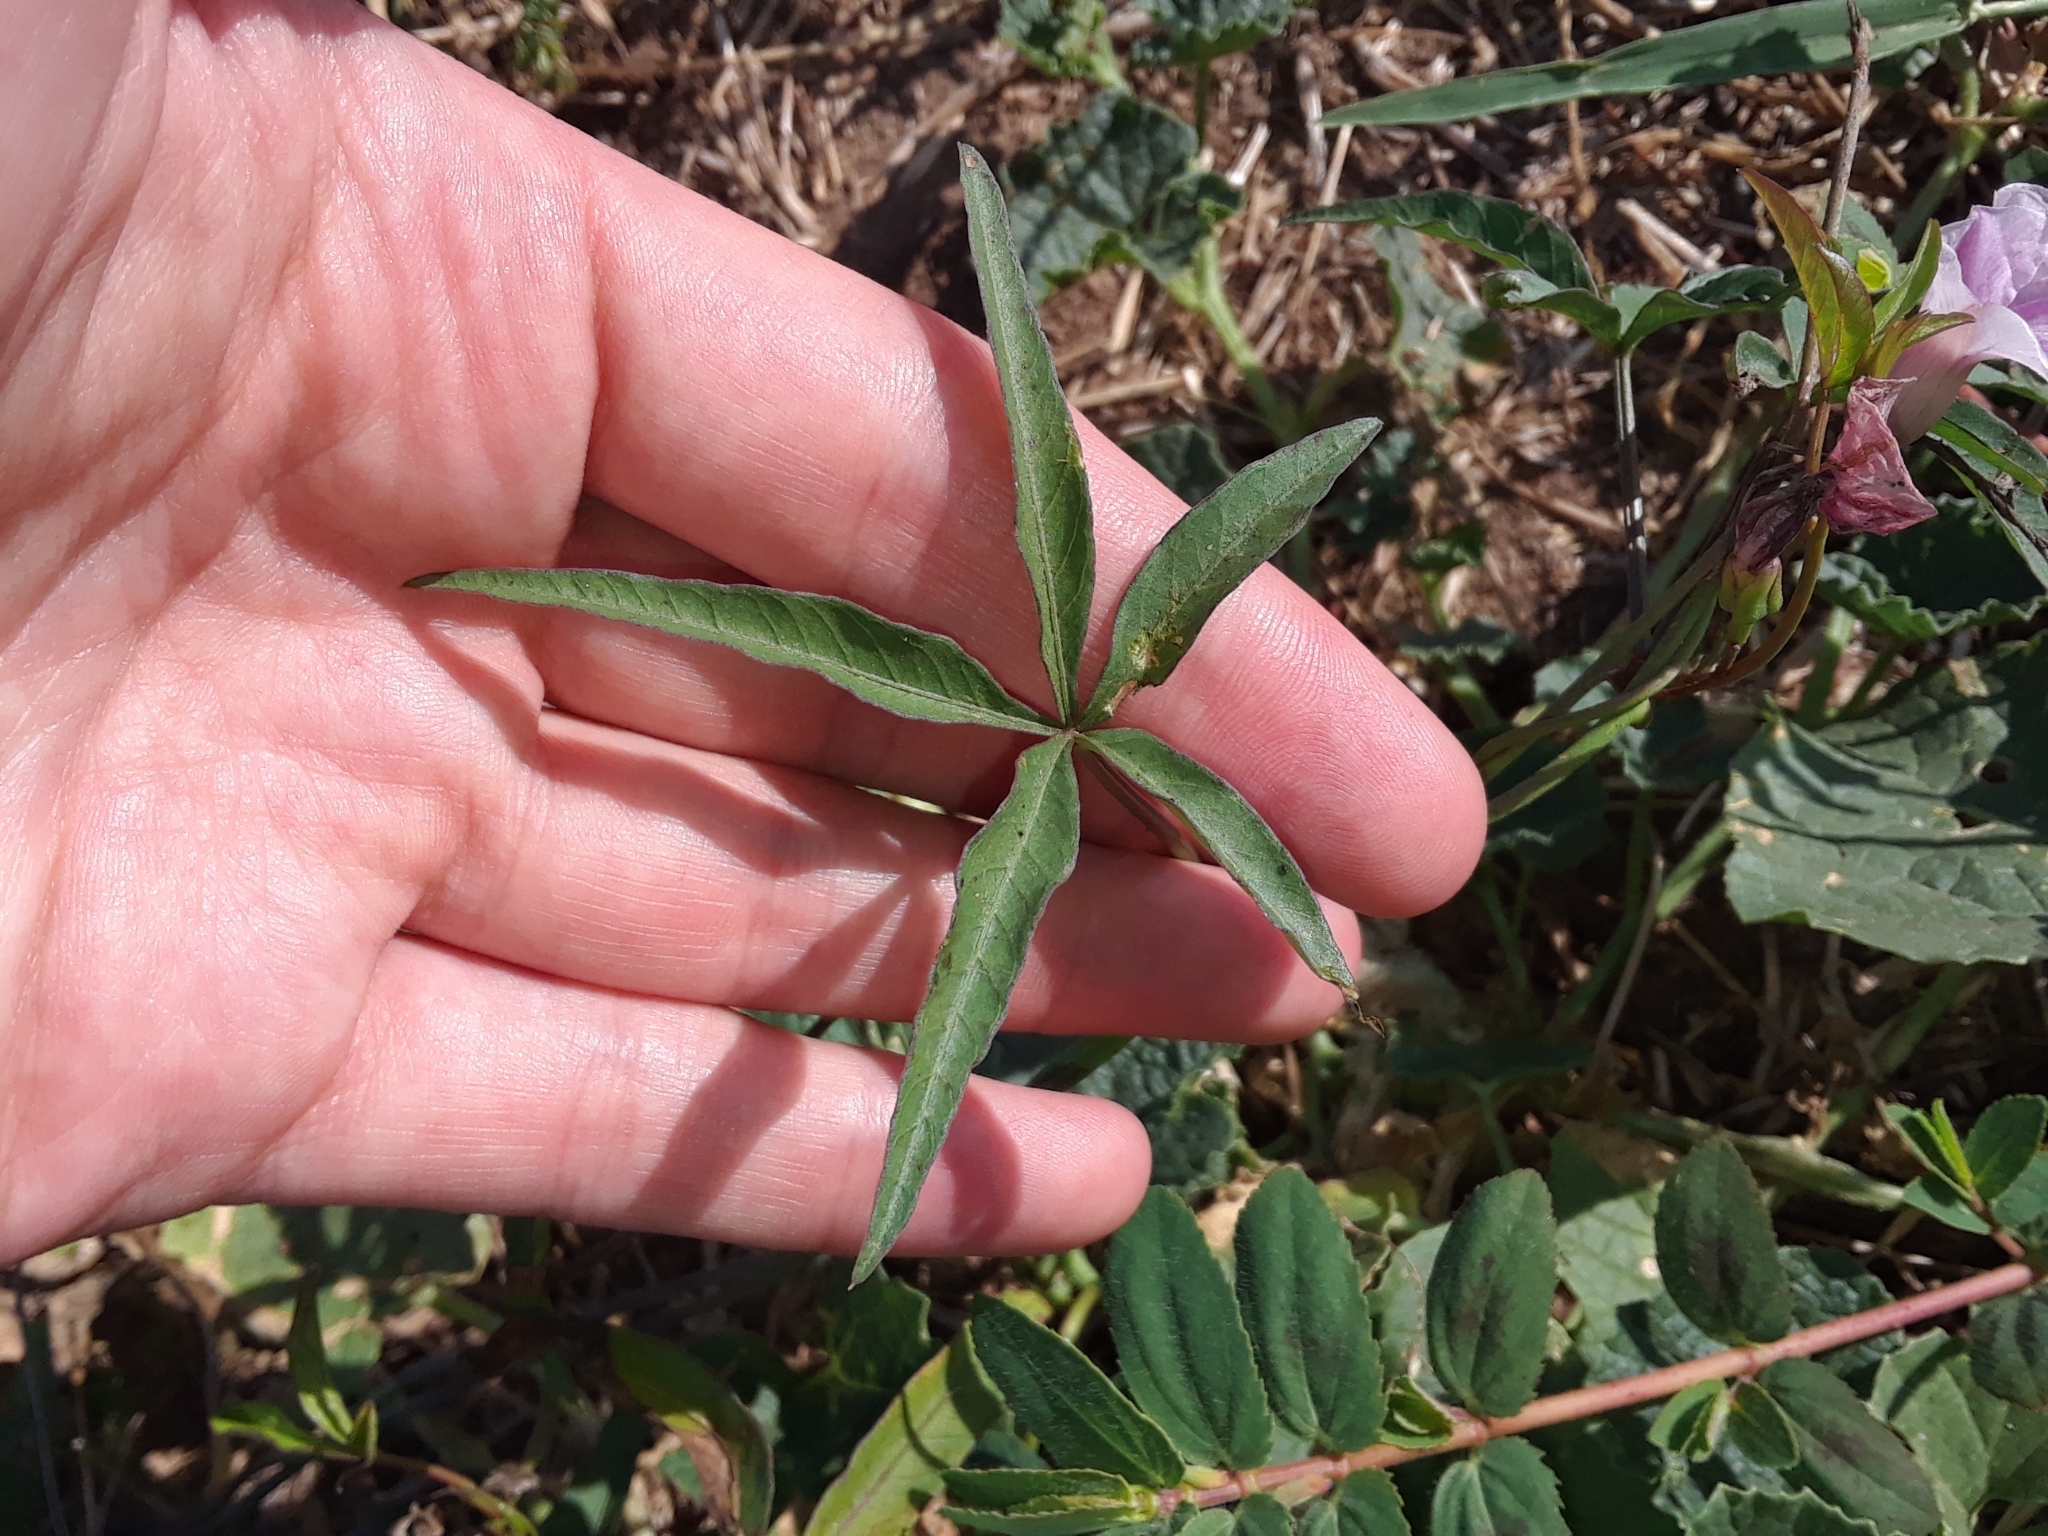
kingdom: Plantae
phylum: Tracheophyta
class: Magnoliopsida
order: Solanales
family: Convolvulaceae
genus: Ipomoea
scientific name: Ipomoea heptaphylla
